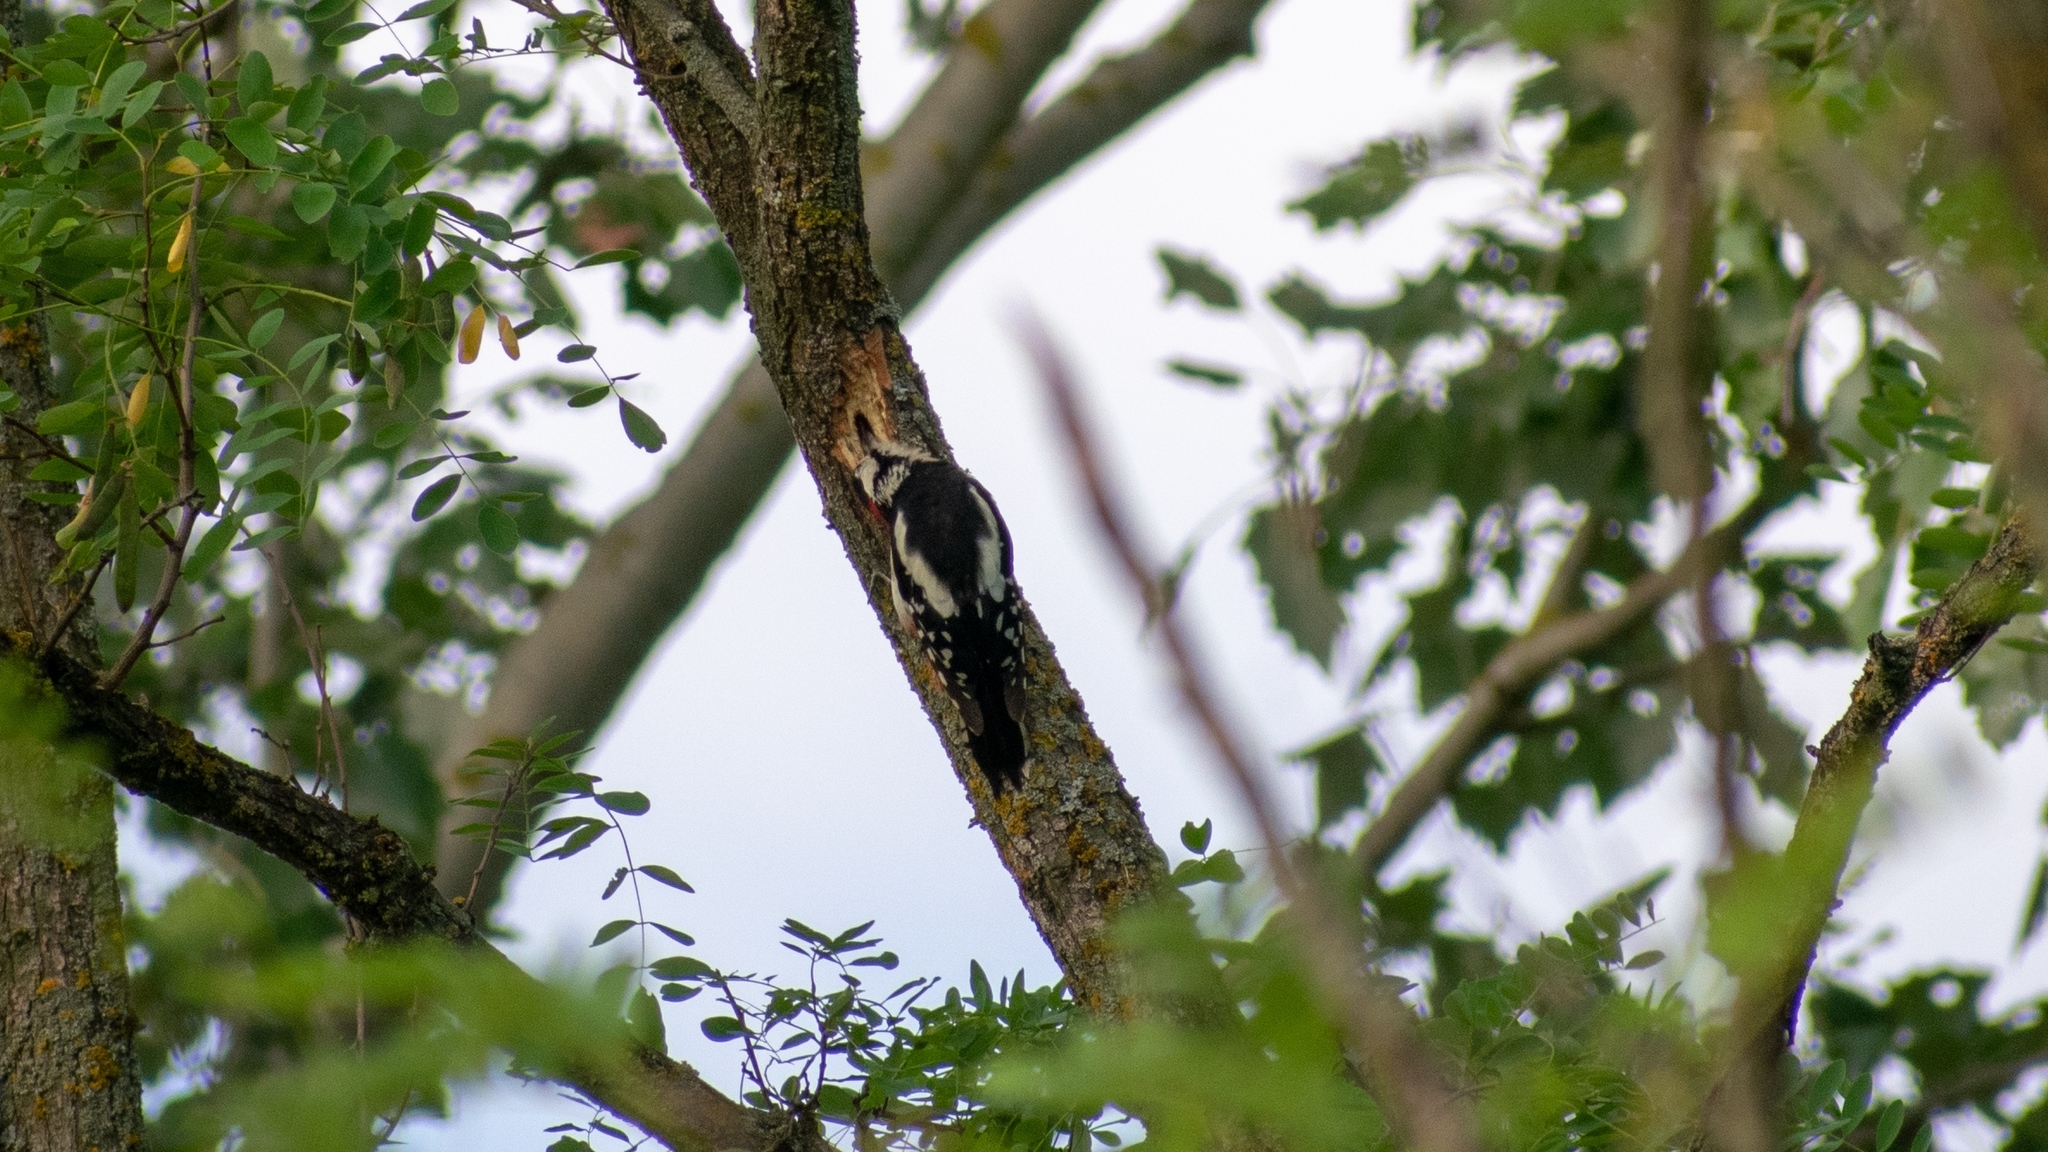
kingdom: Animalia
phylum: Chordata
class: Aves
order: Piciformes
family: Picidae
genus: Dendrocopos
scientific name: Dendrocopos major
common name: Great spotted woodpecker
